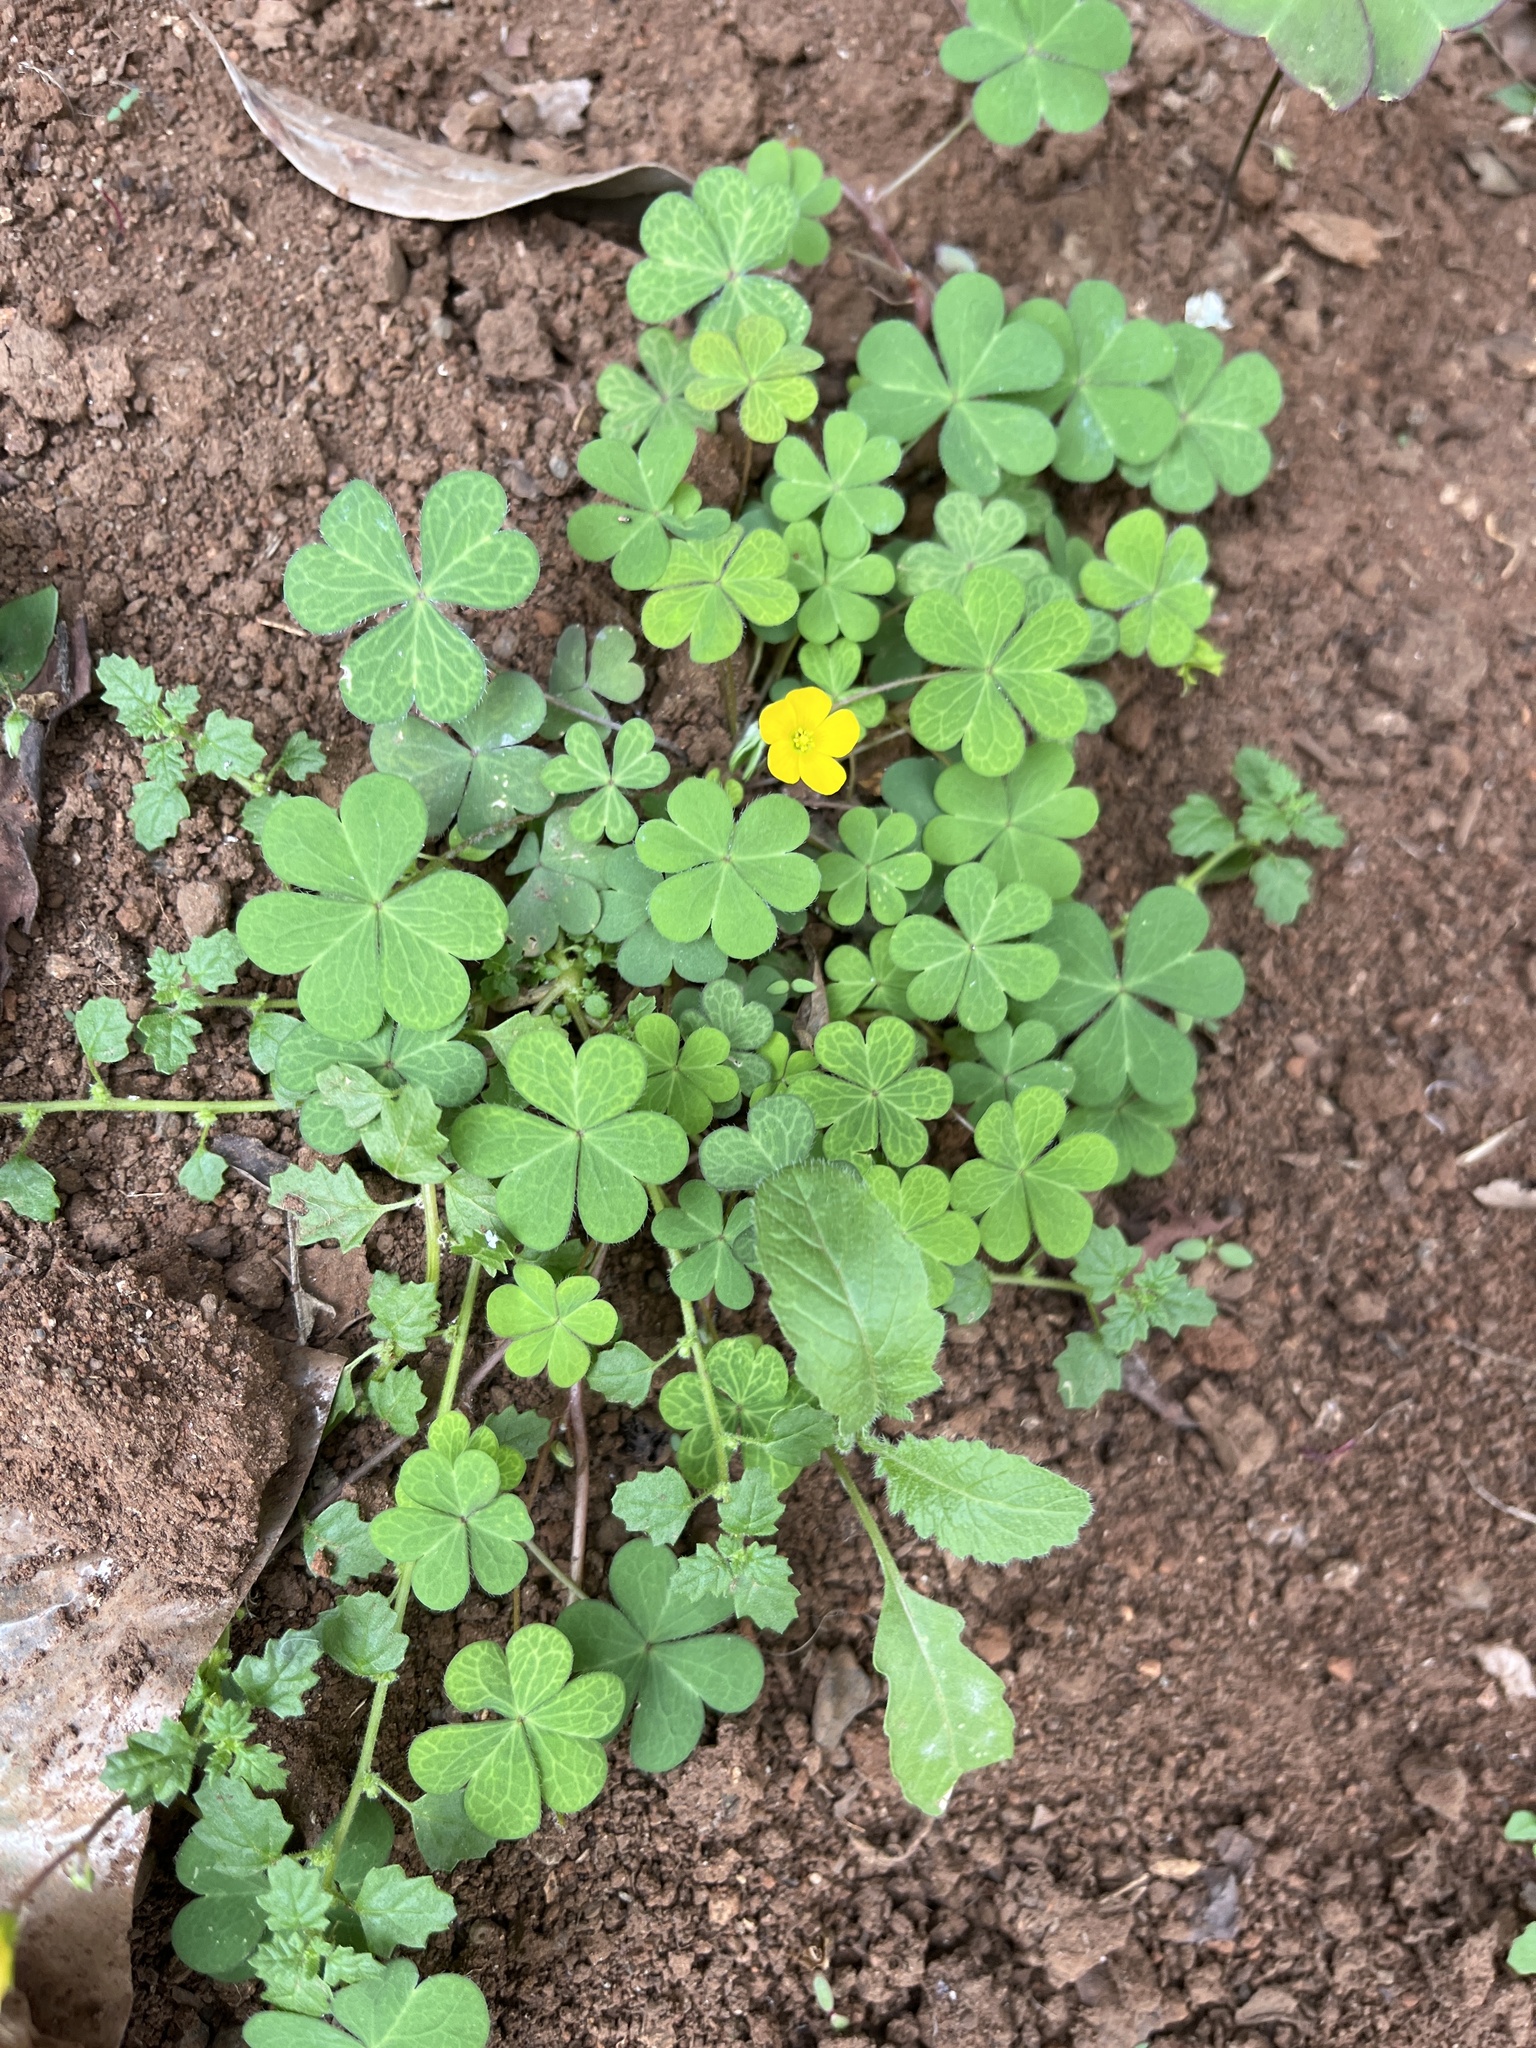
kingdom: Plantae
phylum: Tracheophyta
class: Magnoliopsida
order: Oxalidales
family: Oxalidaceae
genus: Oxalis
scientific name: Oxalis corniculata
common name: Procumbent yellow-sorrel
